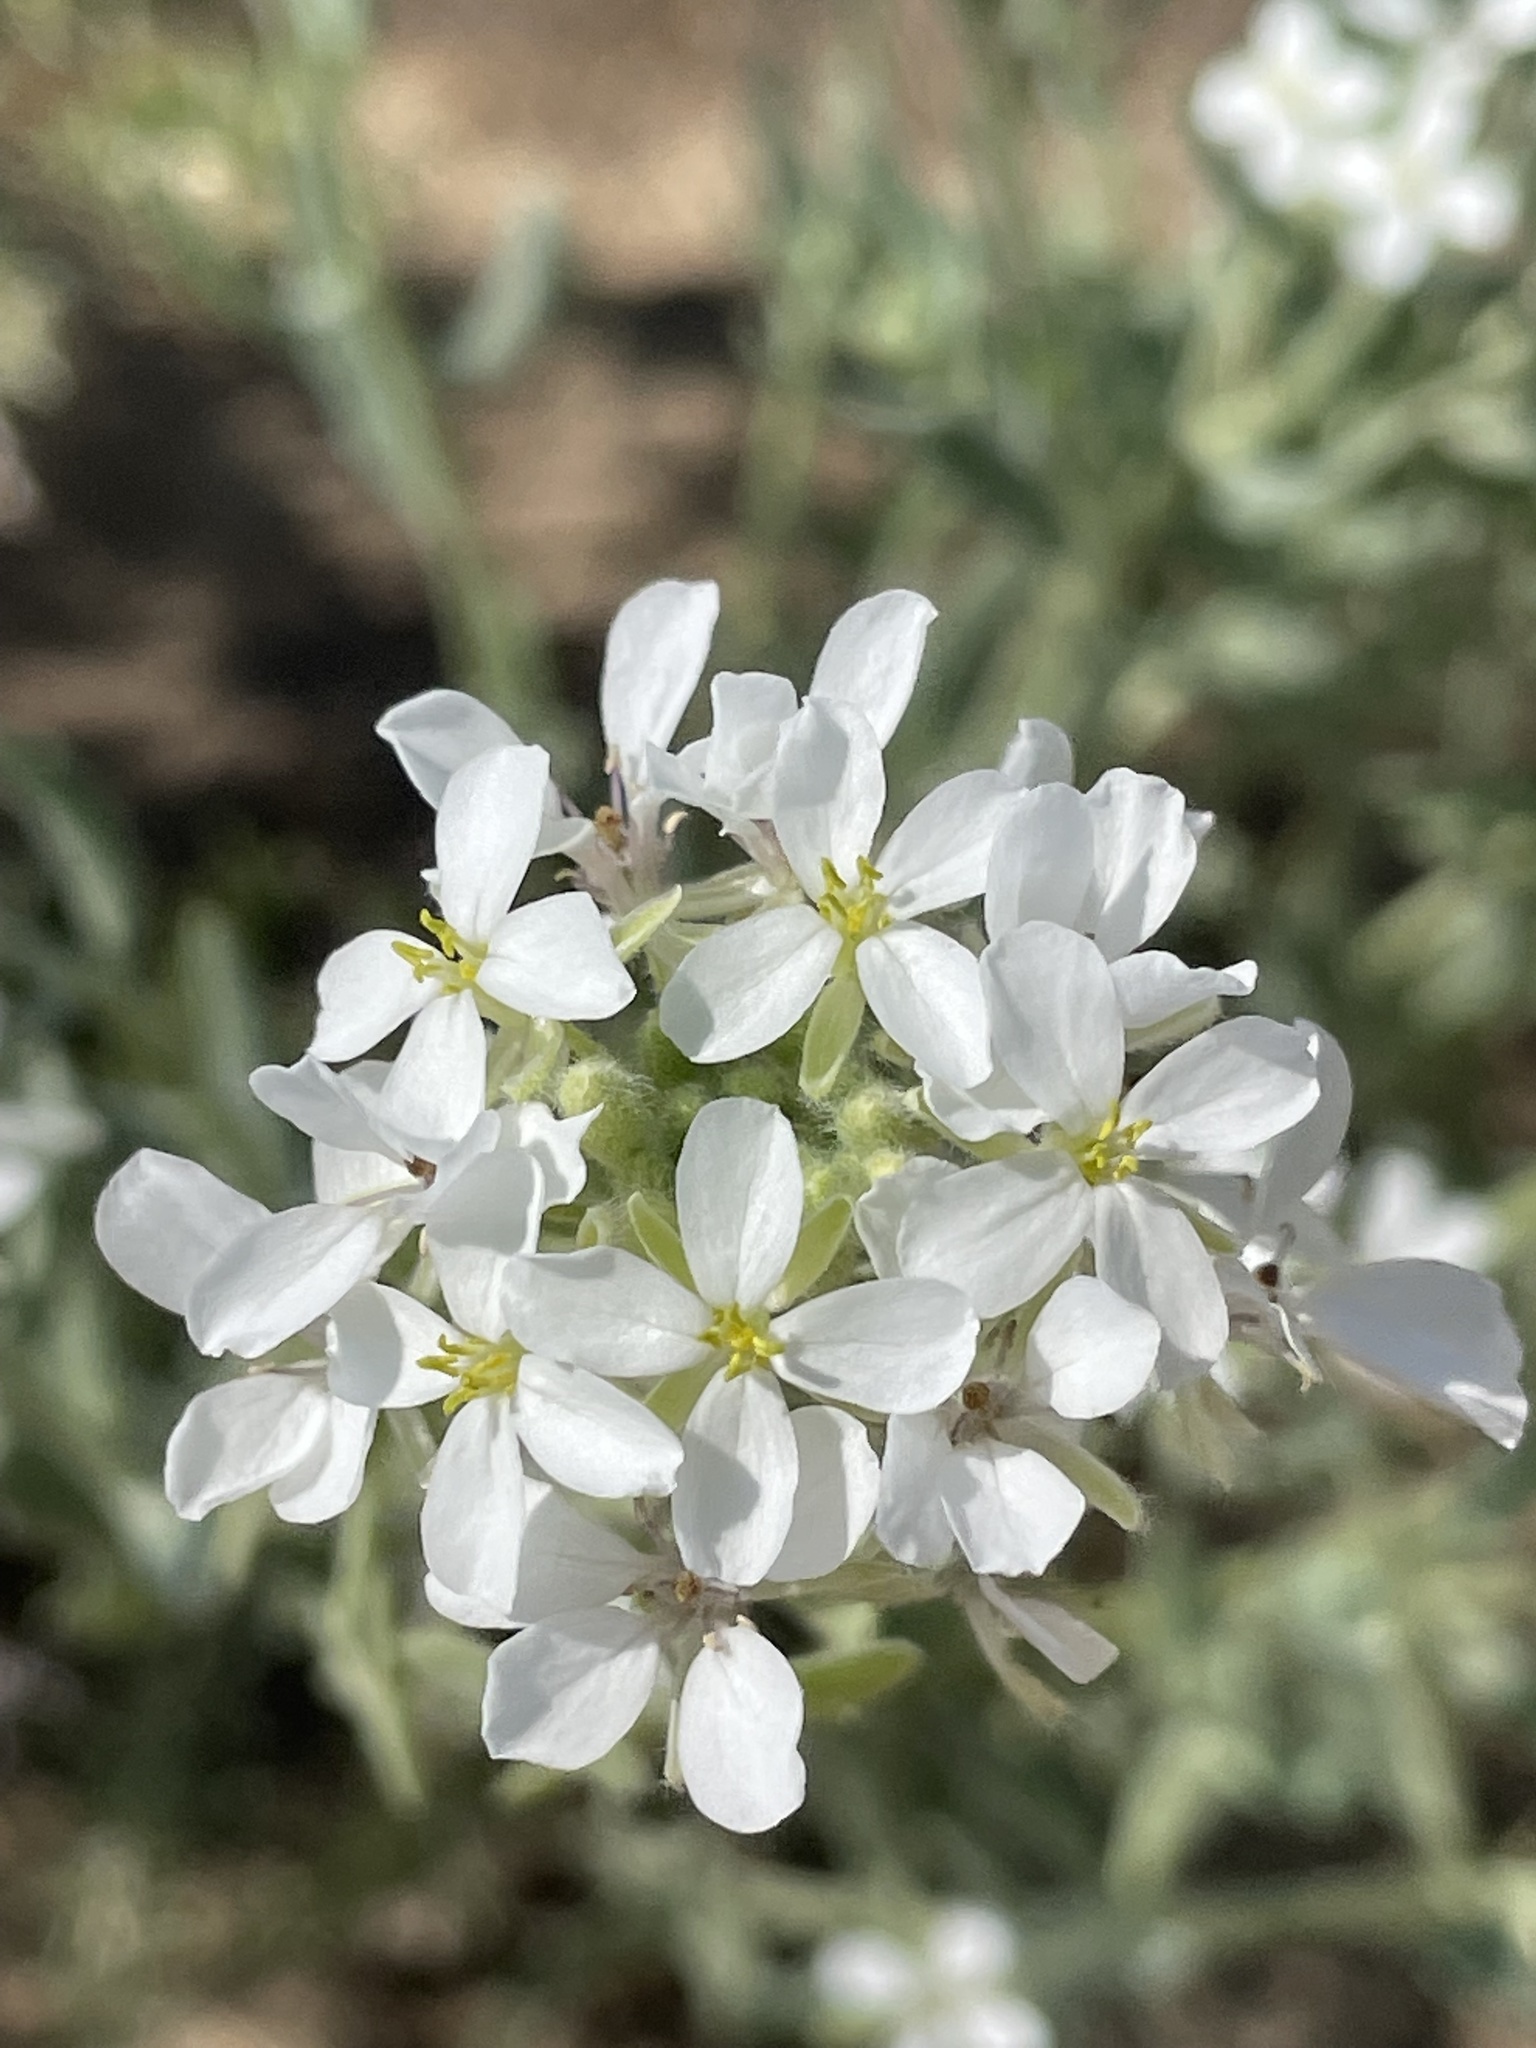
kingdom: Plantae
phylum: Tracheophyta
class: Magnoliopsida
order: Brassicales
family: Brassicaceae
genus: Dimorphocarpa
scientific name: Dimorphocarpa wislizenii
